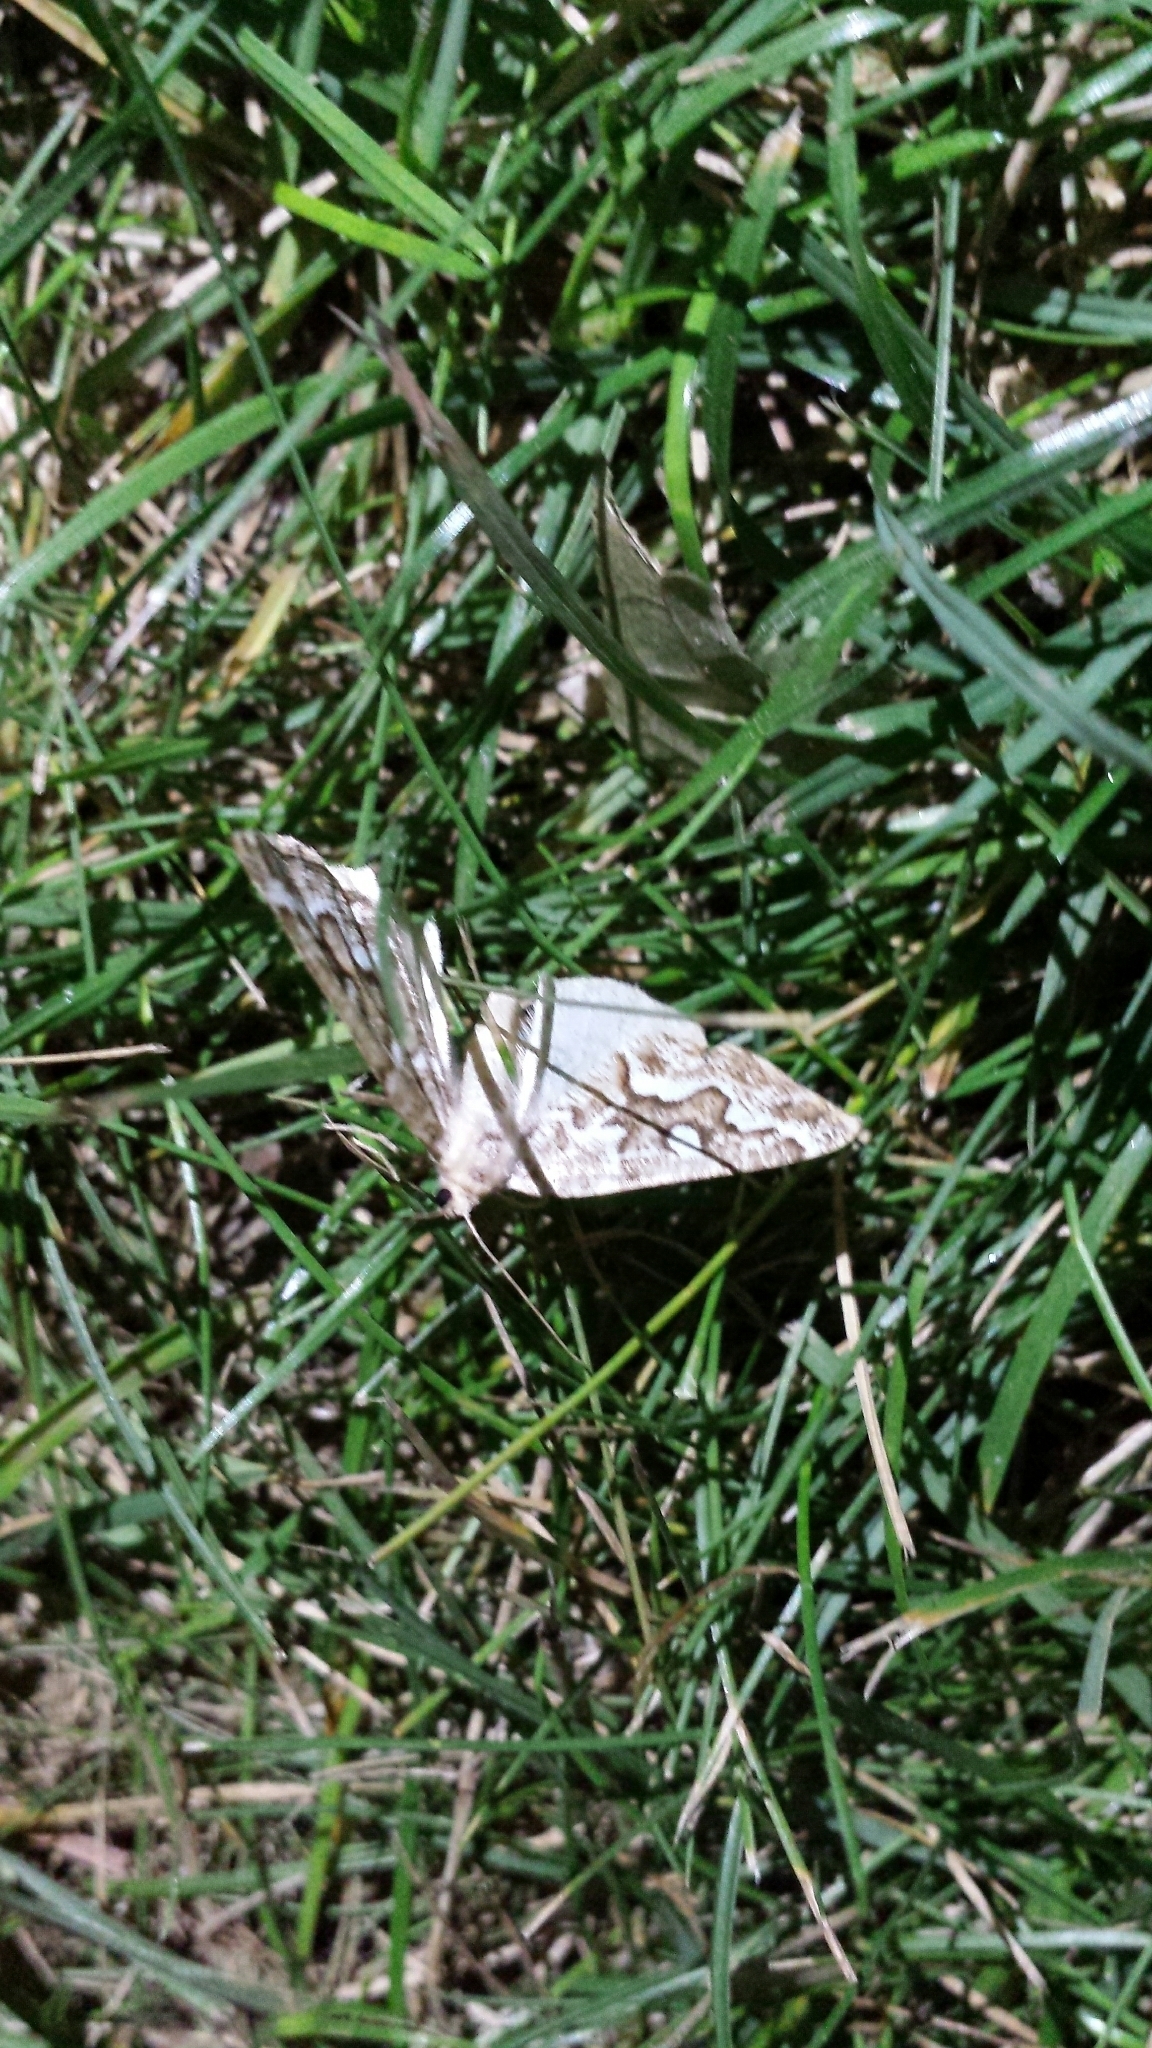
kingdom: Animalia
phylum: Arthropoda
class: Insecta
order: Lepidoptera
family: Geometridae
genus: Caripeta
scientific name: Caripeta divisata
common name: Gray spruce looper
